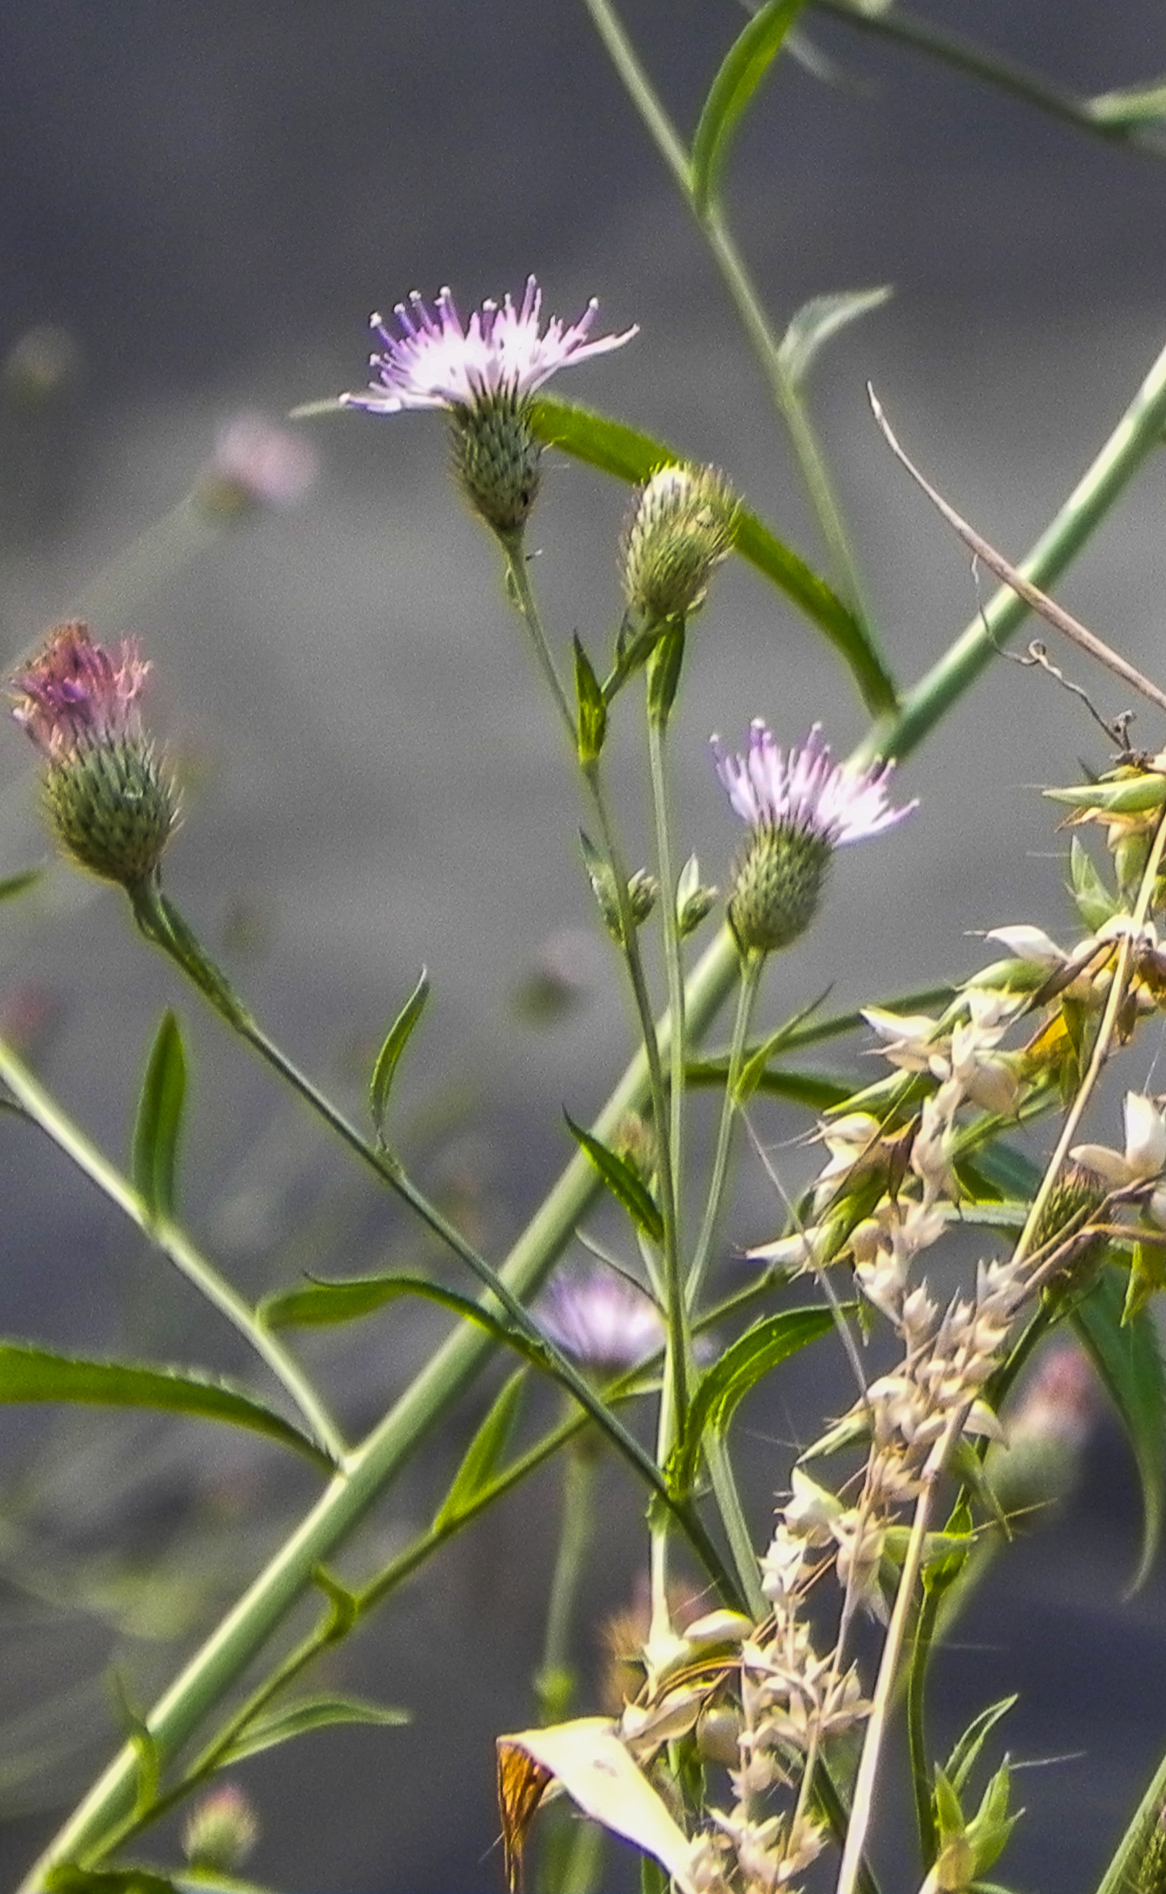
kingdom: Plantae
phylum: Tracheophyta
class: Magnoliopsida
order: Asterales
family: Asteraceae
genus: Tricholepis
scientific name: Tricholepis amplexicaulis
